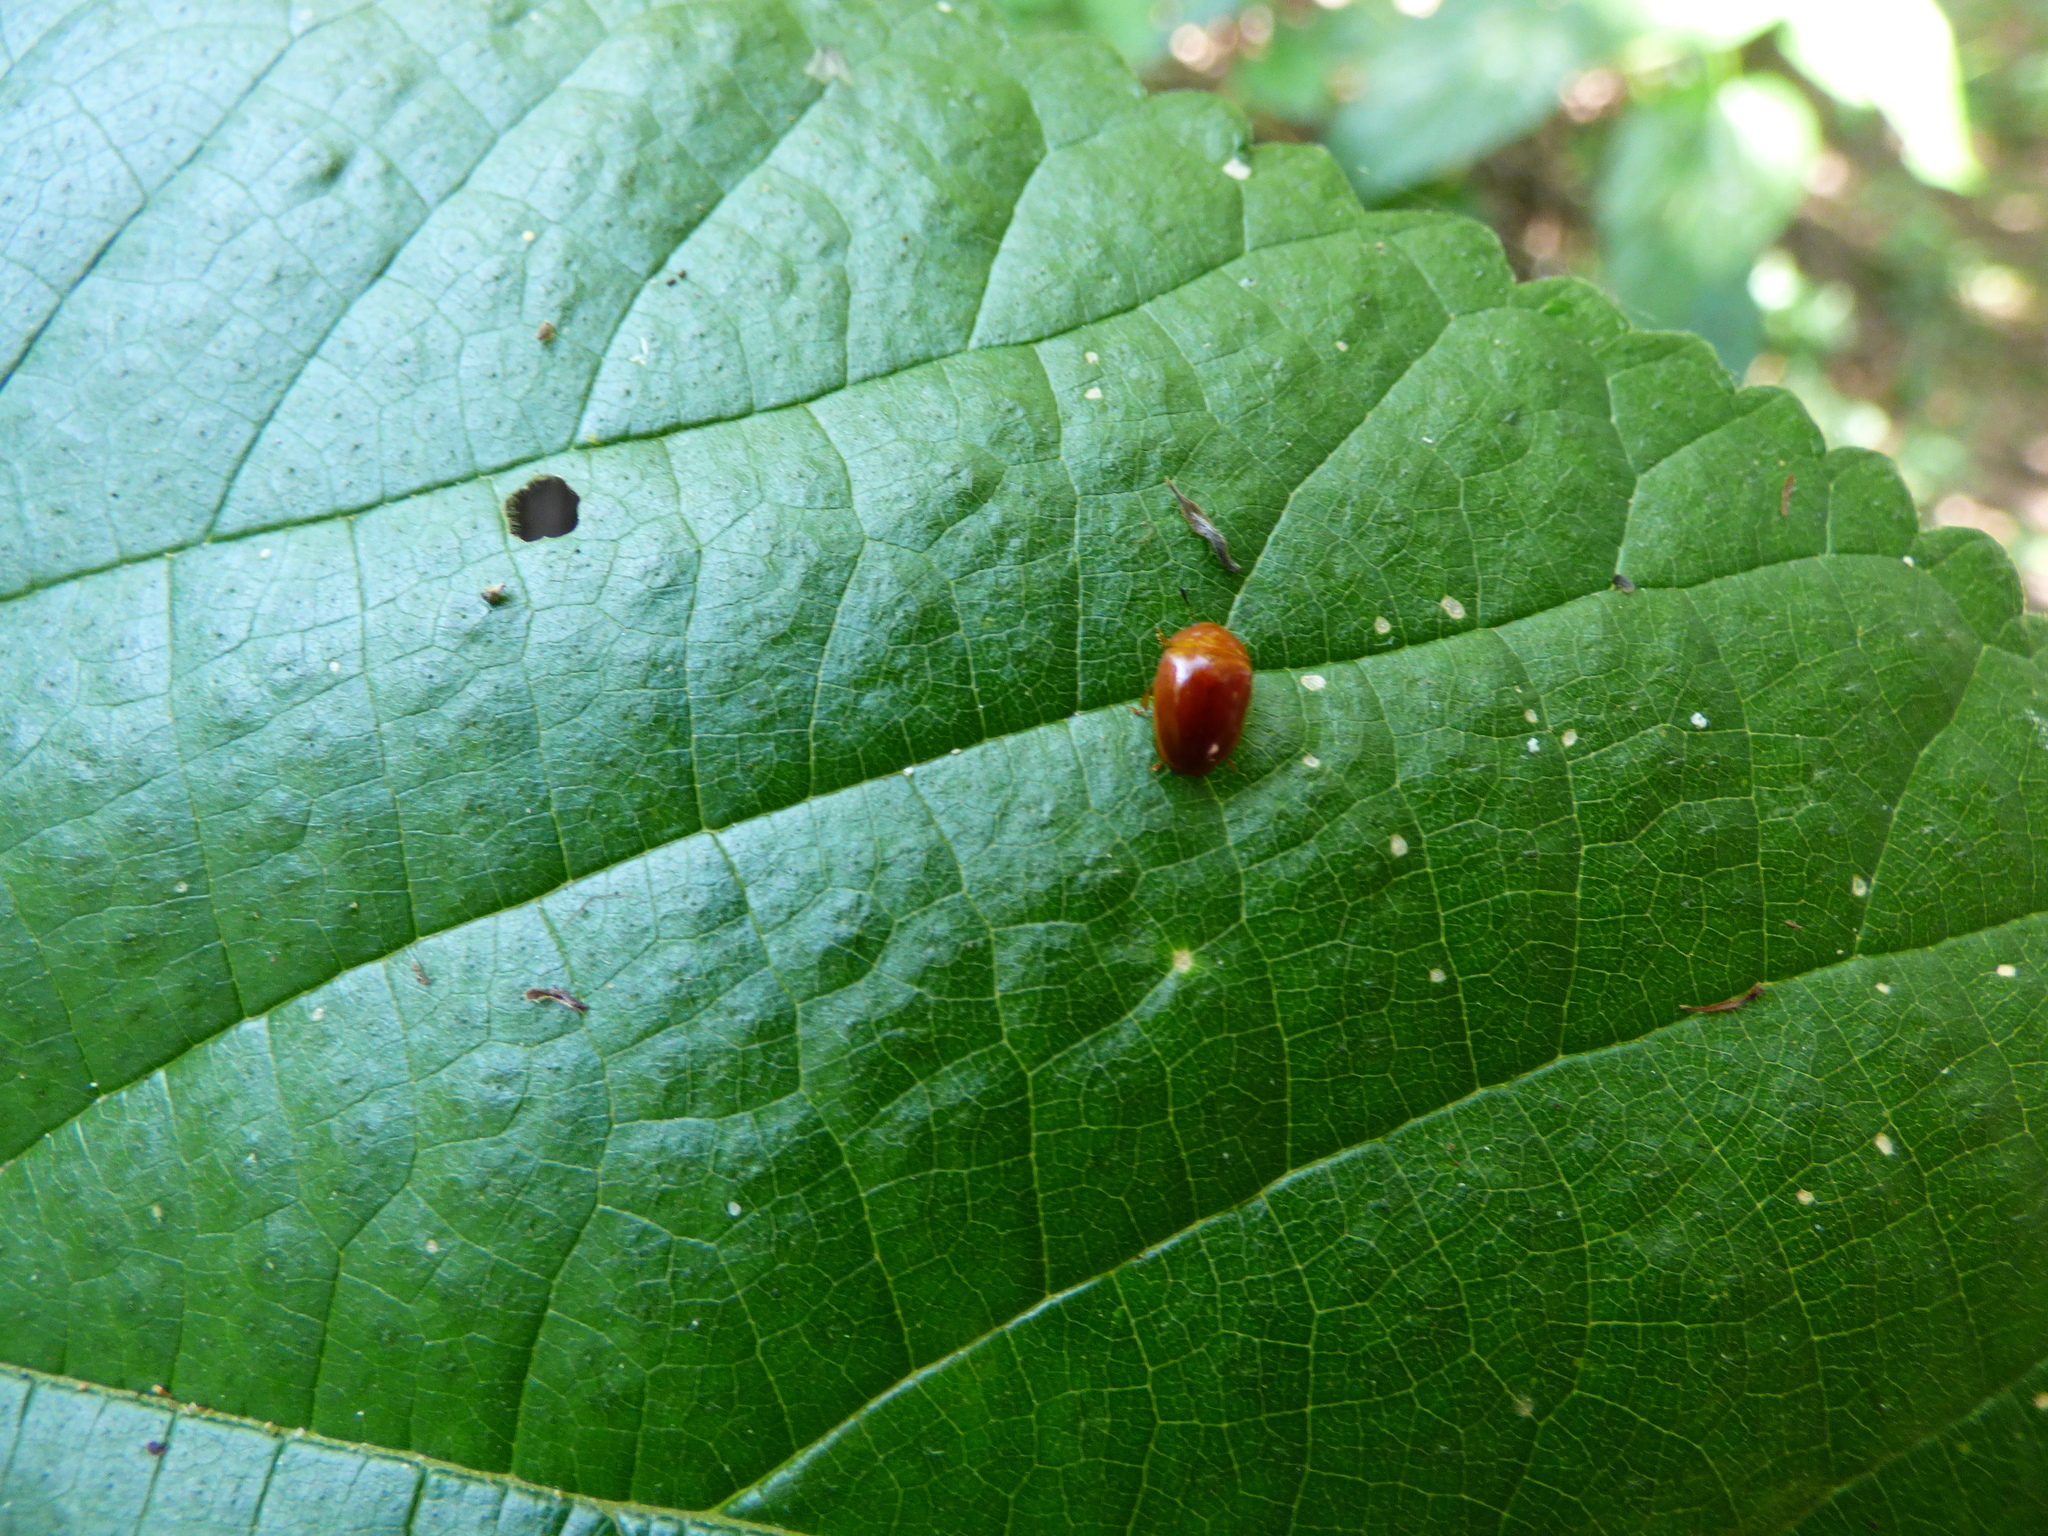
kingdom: Animalia
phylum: Arthropoda
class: Insecta
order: Coleoptera
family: Erotylidae
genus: Mycomystes
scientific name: Mycomystes nigriventris
